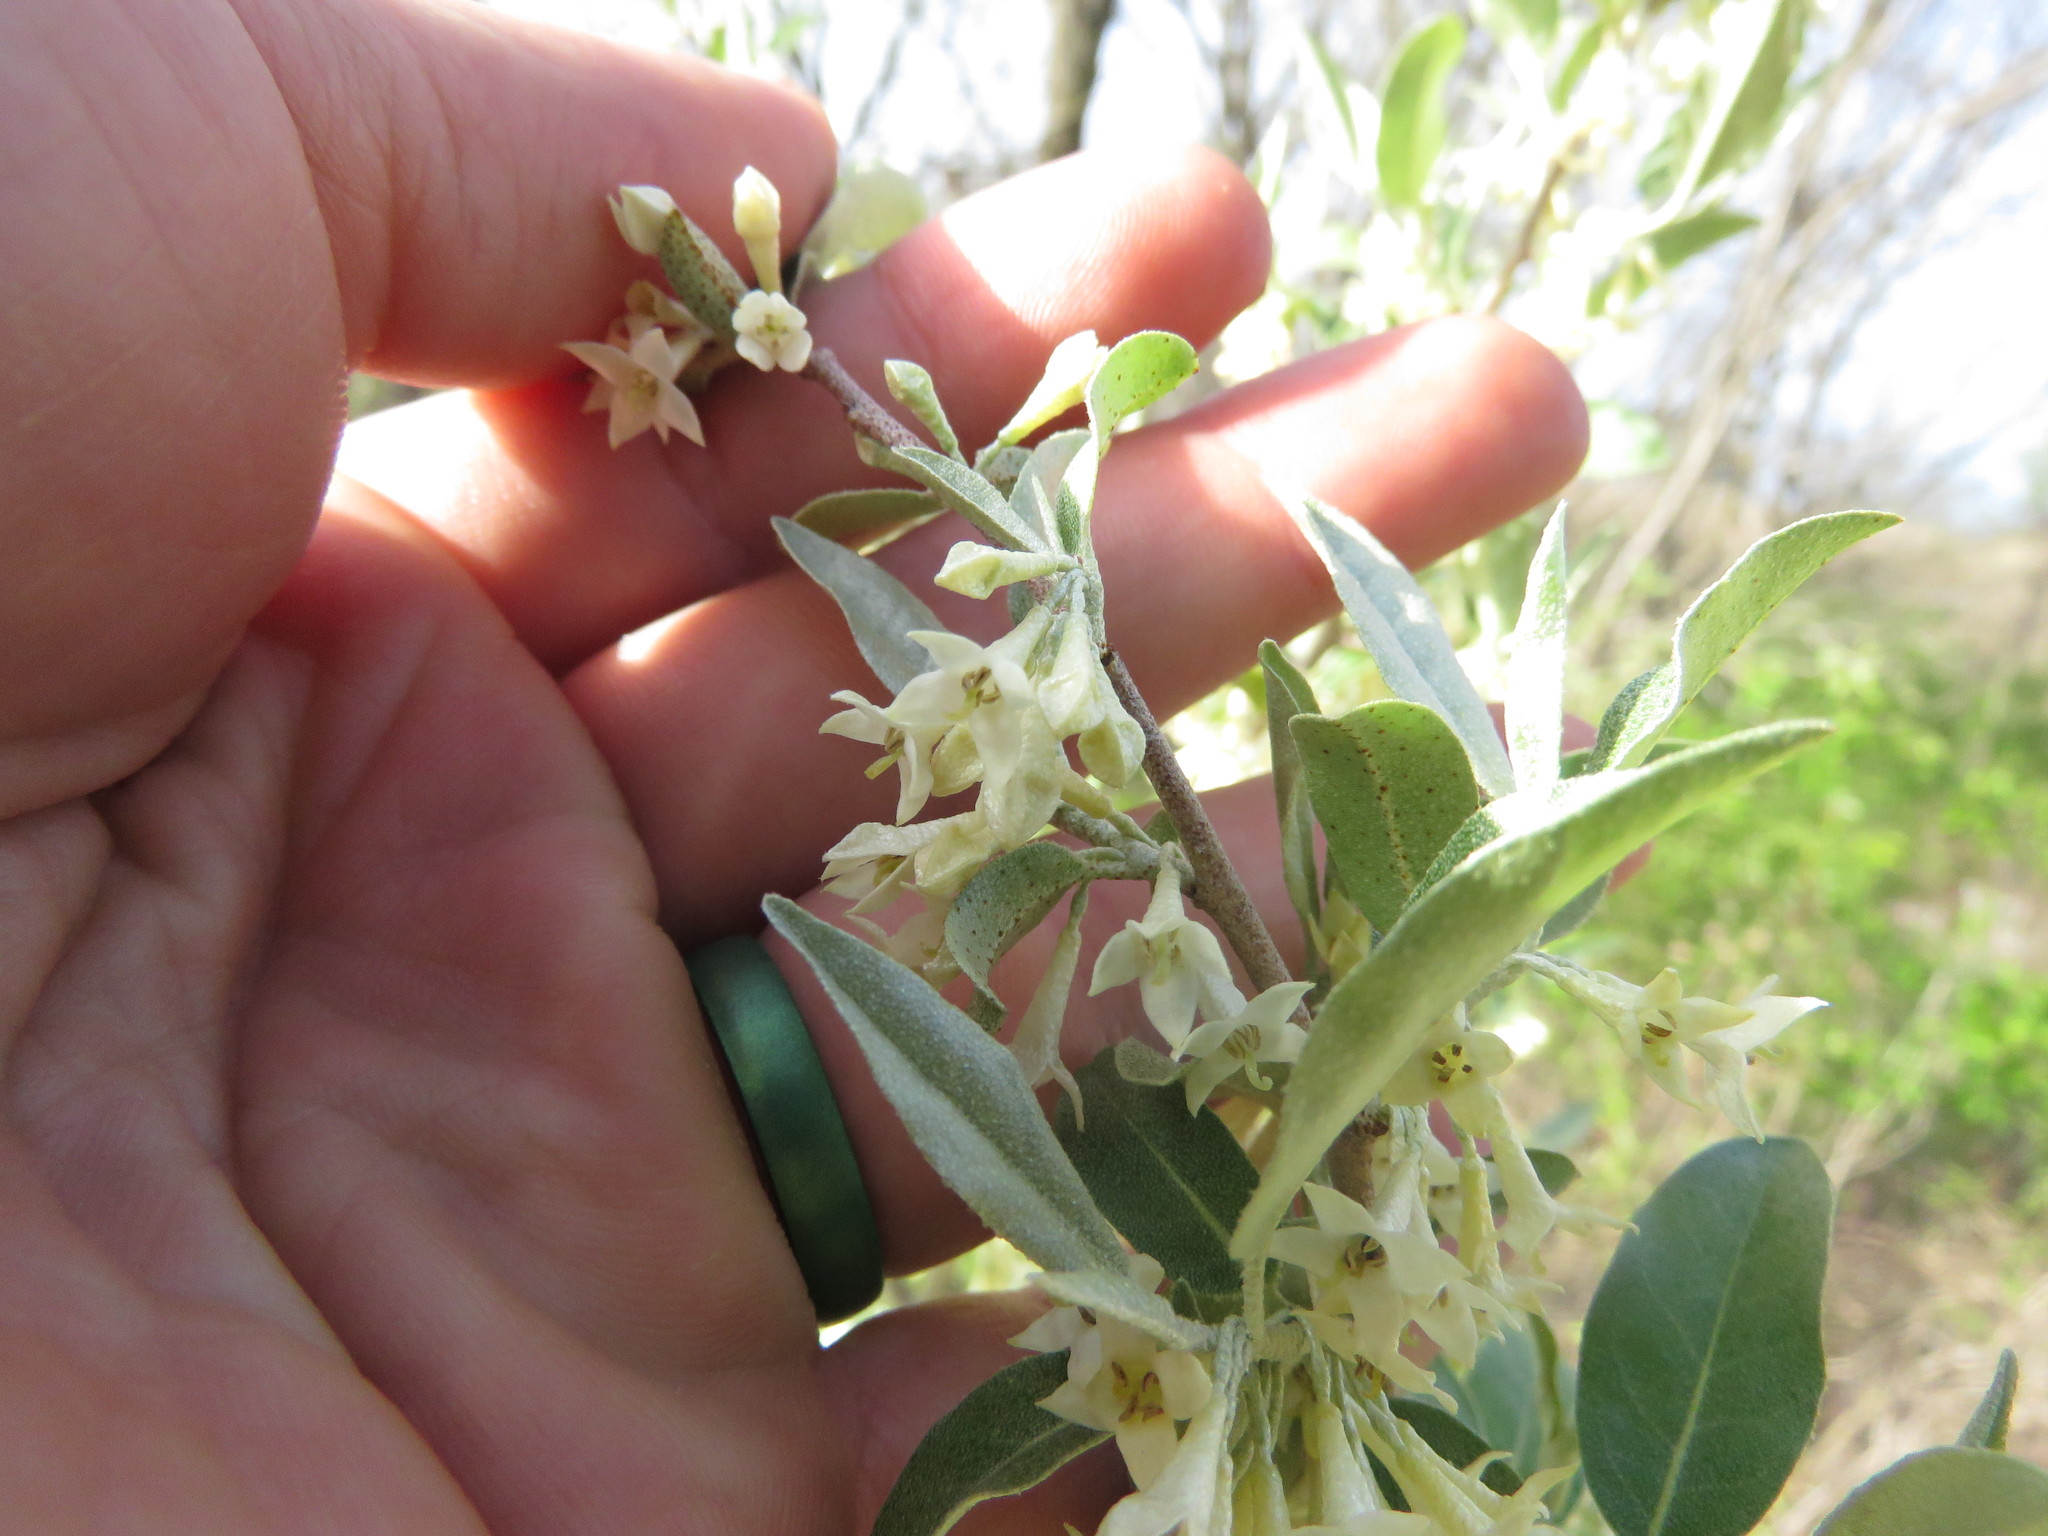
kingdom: Plantae
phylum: Tracheophyta
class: Magnoliopsida
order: Rosales
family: Elaeagnaceae
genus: Elaeagnus
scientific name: Elaeagnus umbellata
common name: Autumn olive
